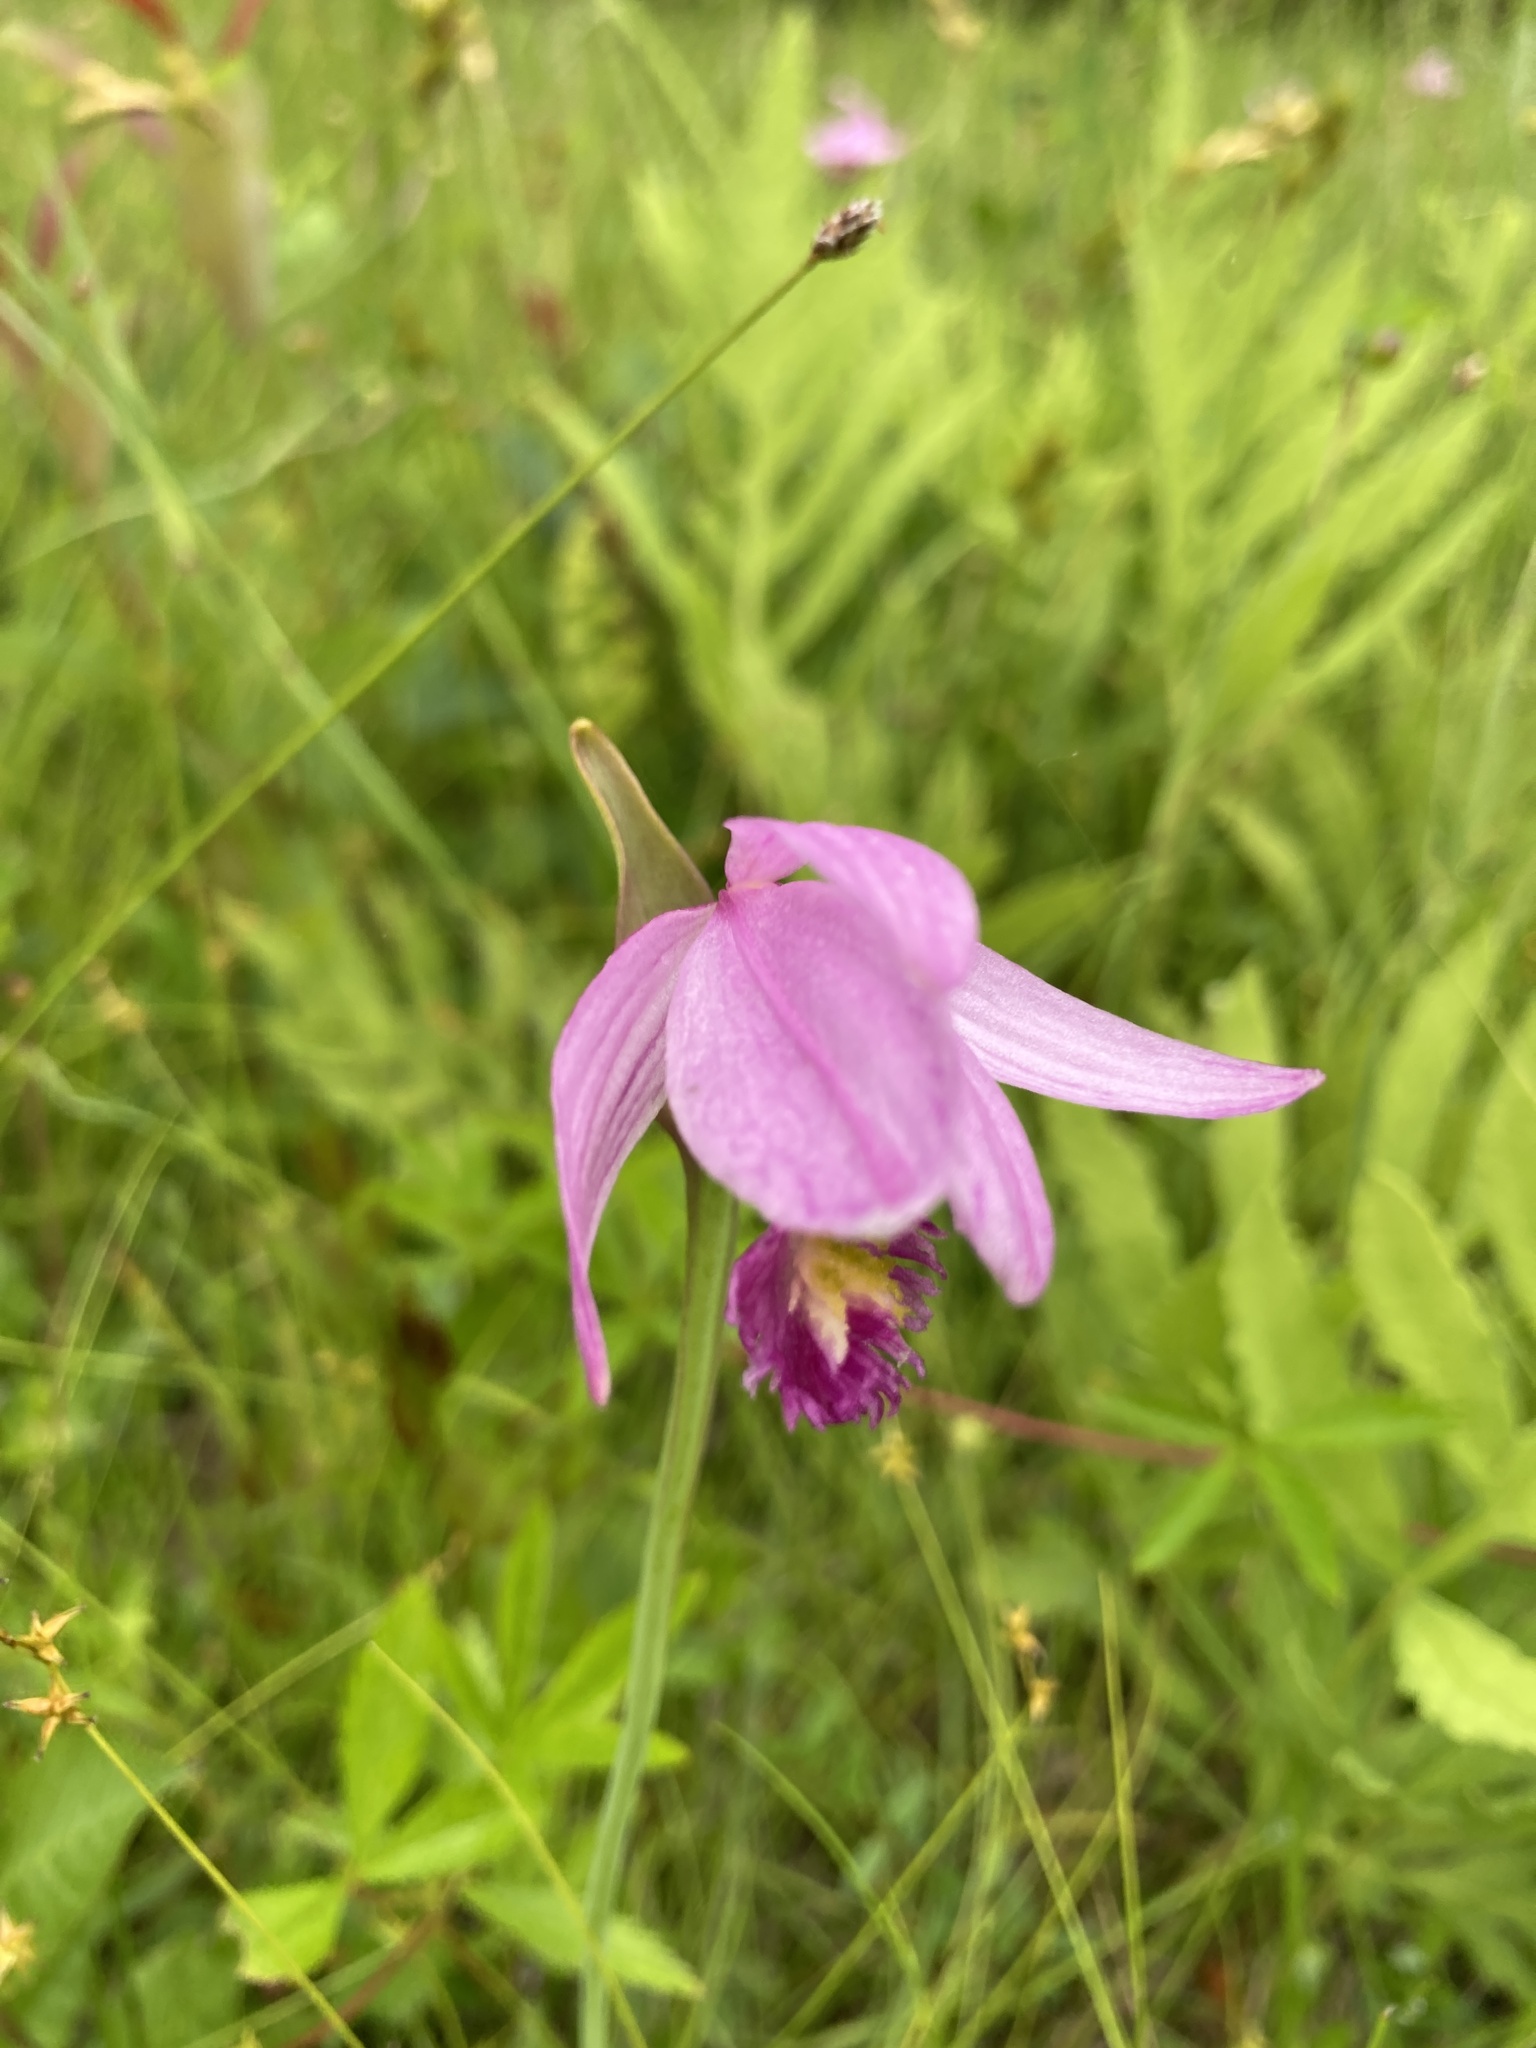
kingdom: Plantae
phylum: Tracheophyta
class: Liliopsida
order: Asparagales
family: Orchidaceae
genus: Pogonia
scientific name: Pogonia ophioglossoides
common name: Rose pogonia
